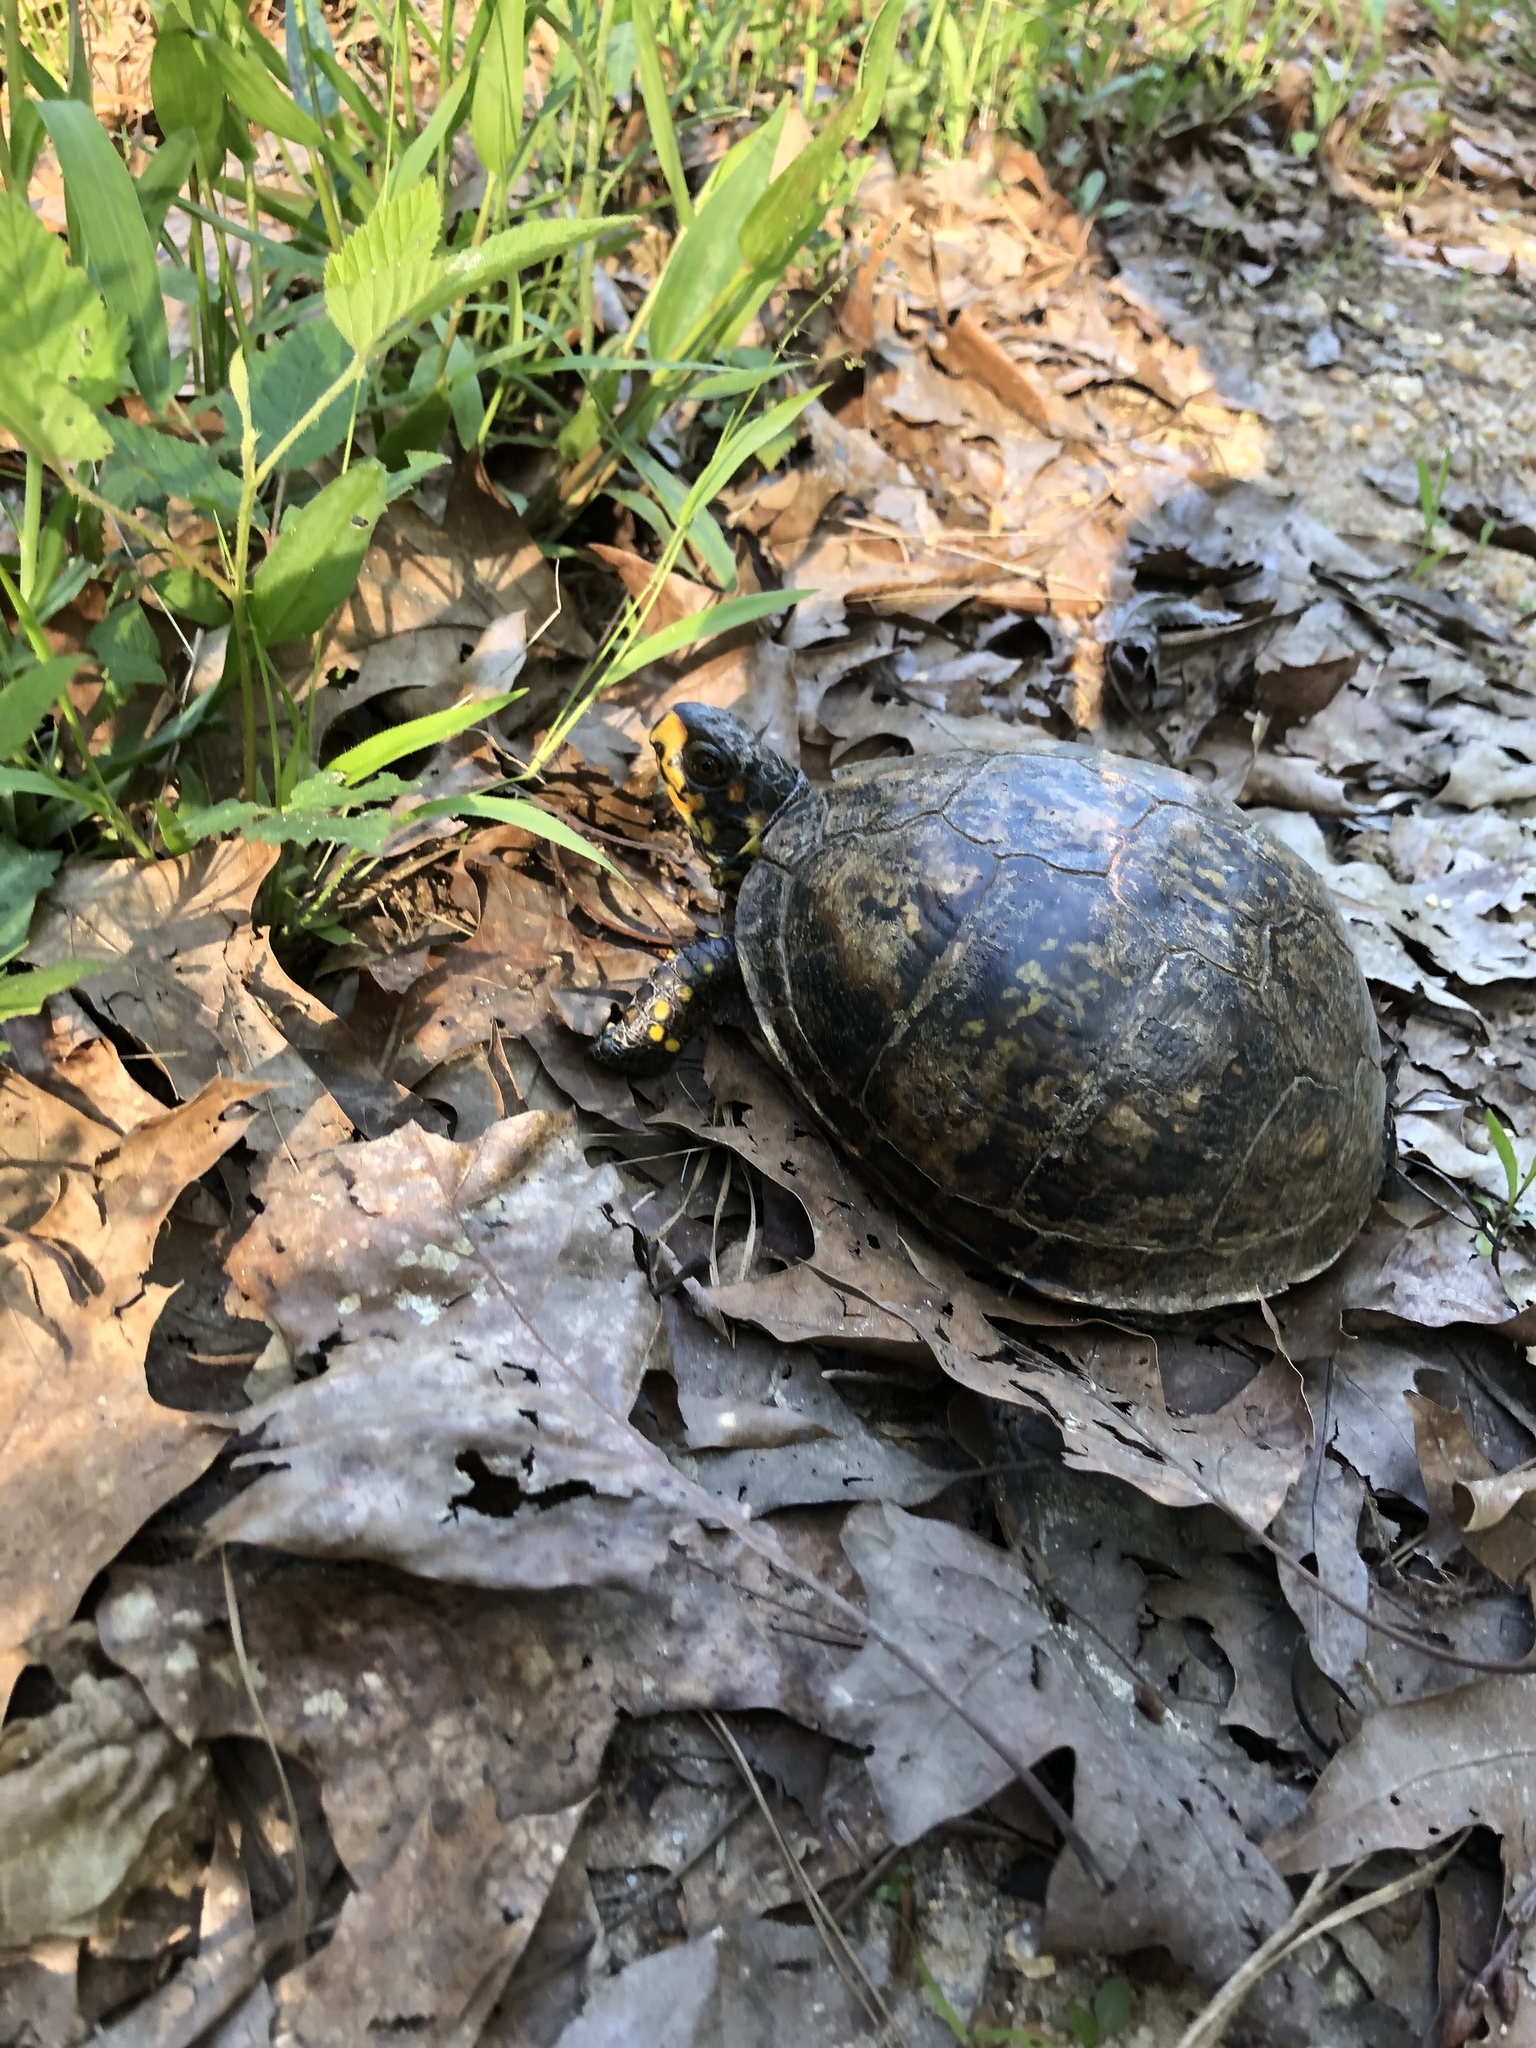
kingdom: Animalia
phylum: Chordata
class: Testudines
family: Emydidae
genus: Terrapene
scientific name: Terrapene carolina
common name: Common box turtle
